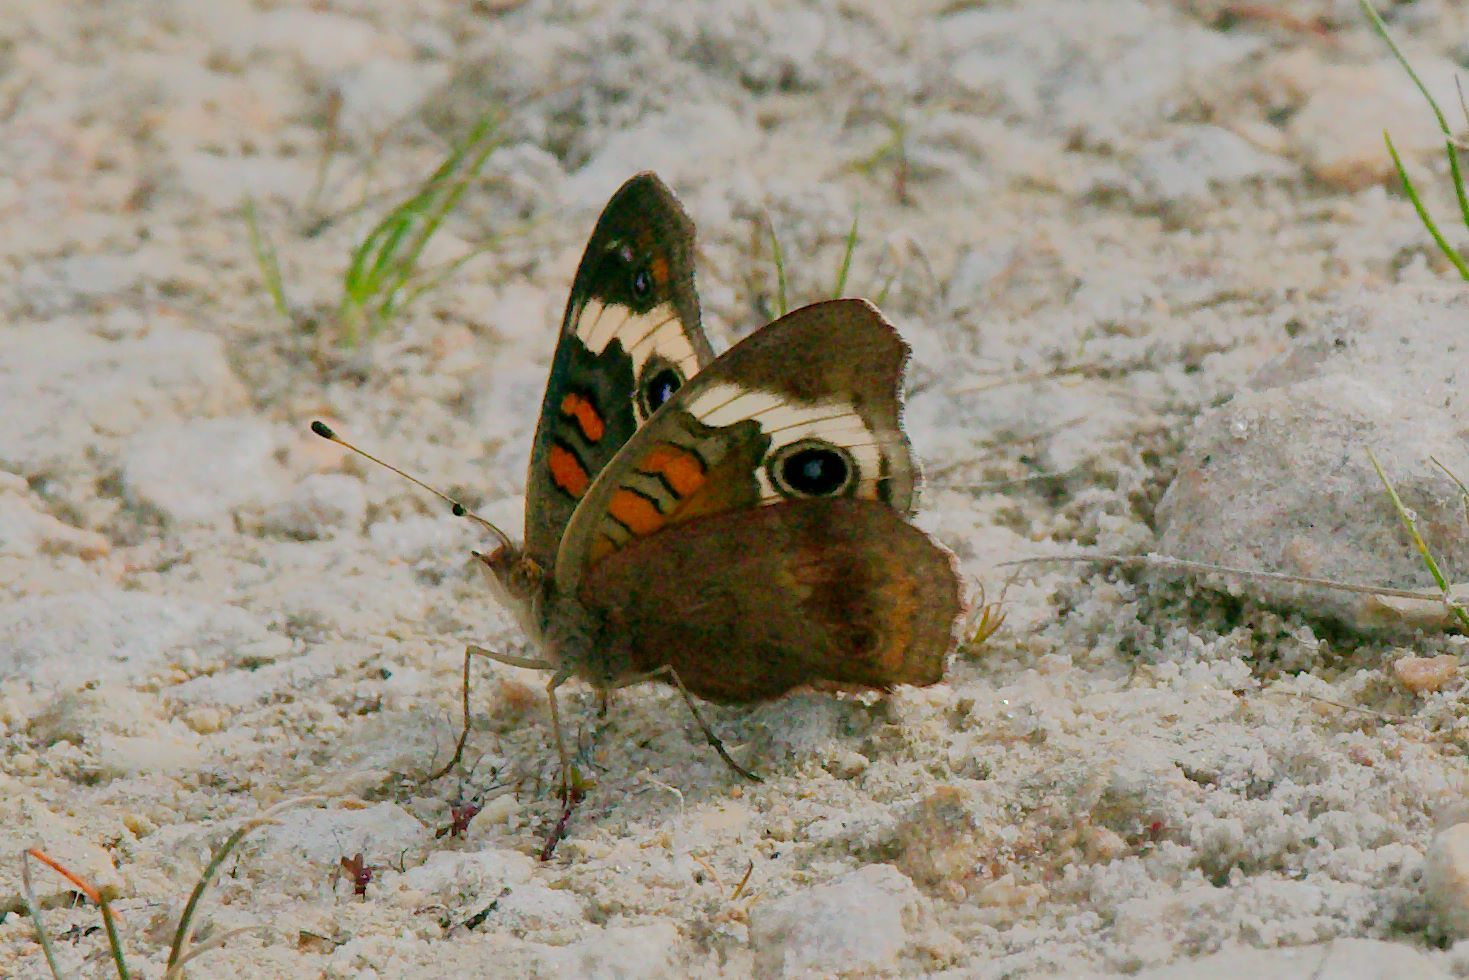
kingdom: Animalia
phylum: Arthropoda
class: Insecta
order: Lepidoptera
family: Nymphalidae
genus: Junonia
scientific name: Junonia coenia
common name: Common buckeye
